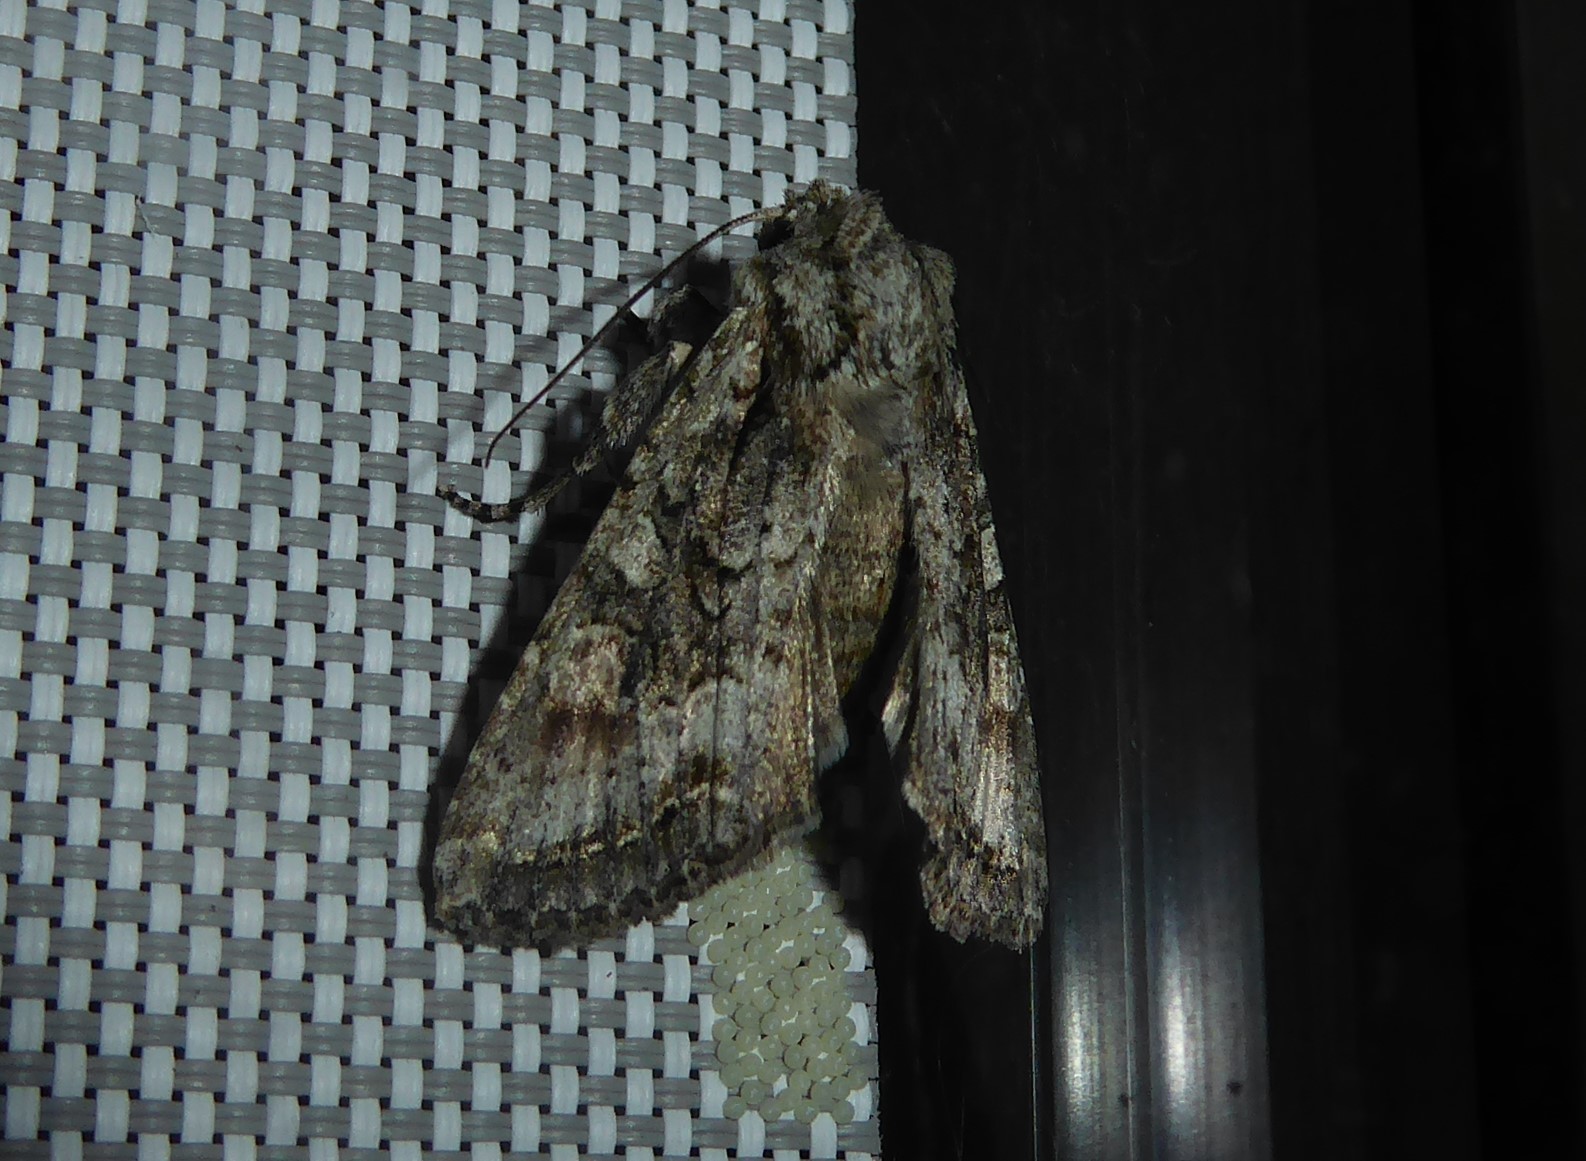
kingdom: Animalia
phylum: Arthropoda
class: Insecta
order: Lepidoptera
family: Noctuidae
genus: Ichneutica
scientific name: Ichneutica mutans
